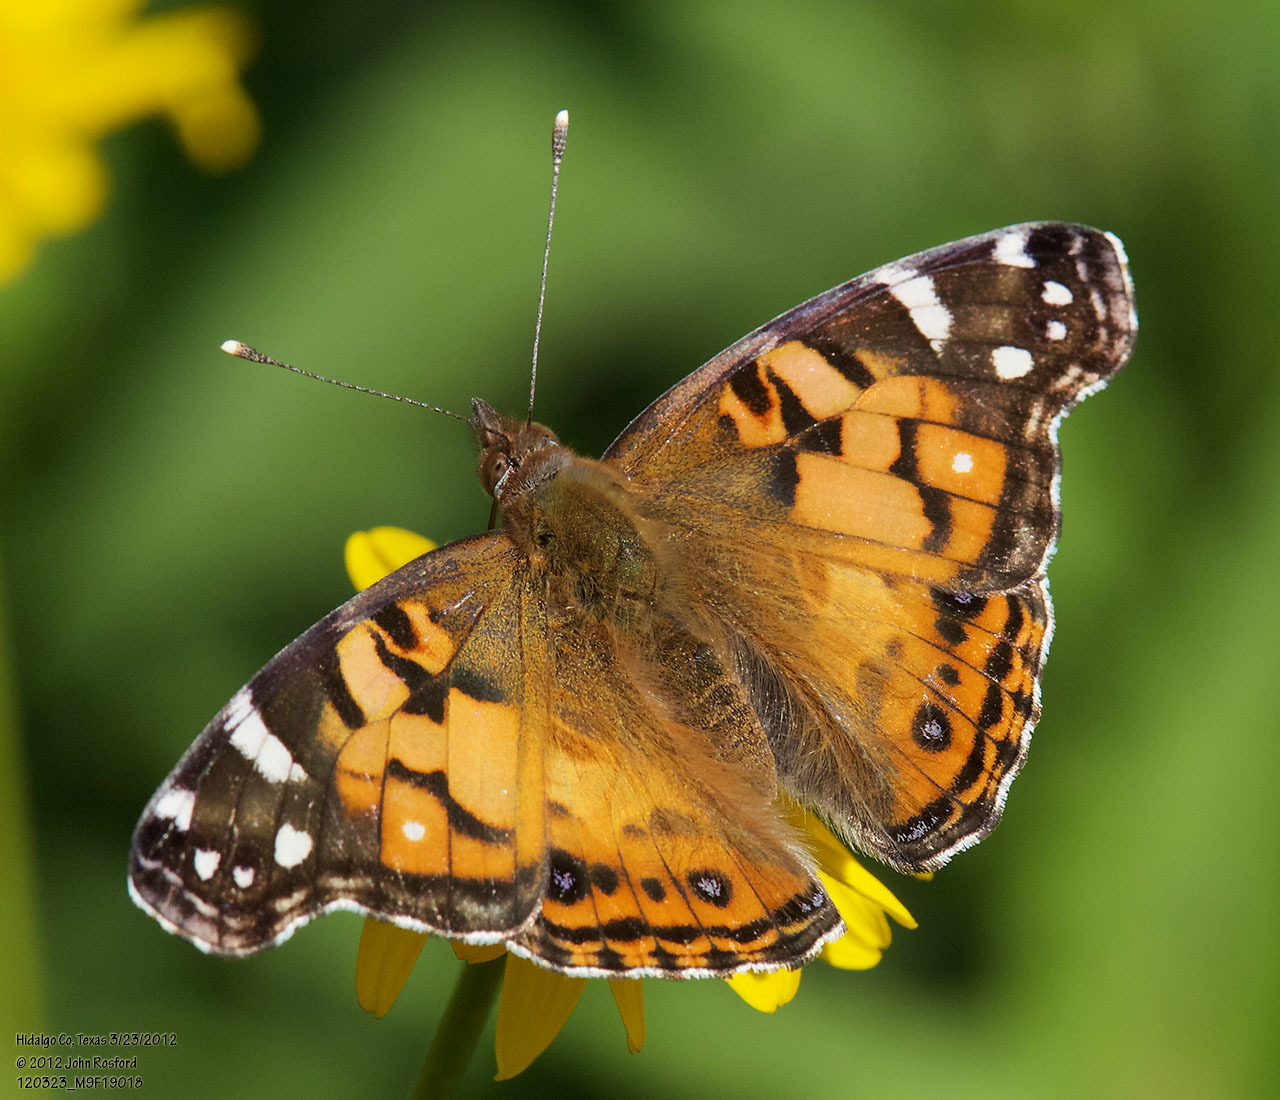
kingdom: Animalia
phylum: Arthropoda
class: Insecta
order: Lepidoptera
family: Nymphalidae
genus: Vanessa
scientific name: Vanessa virginiensis
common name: American lady
